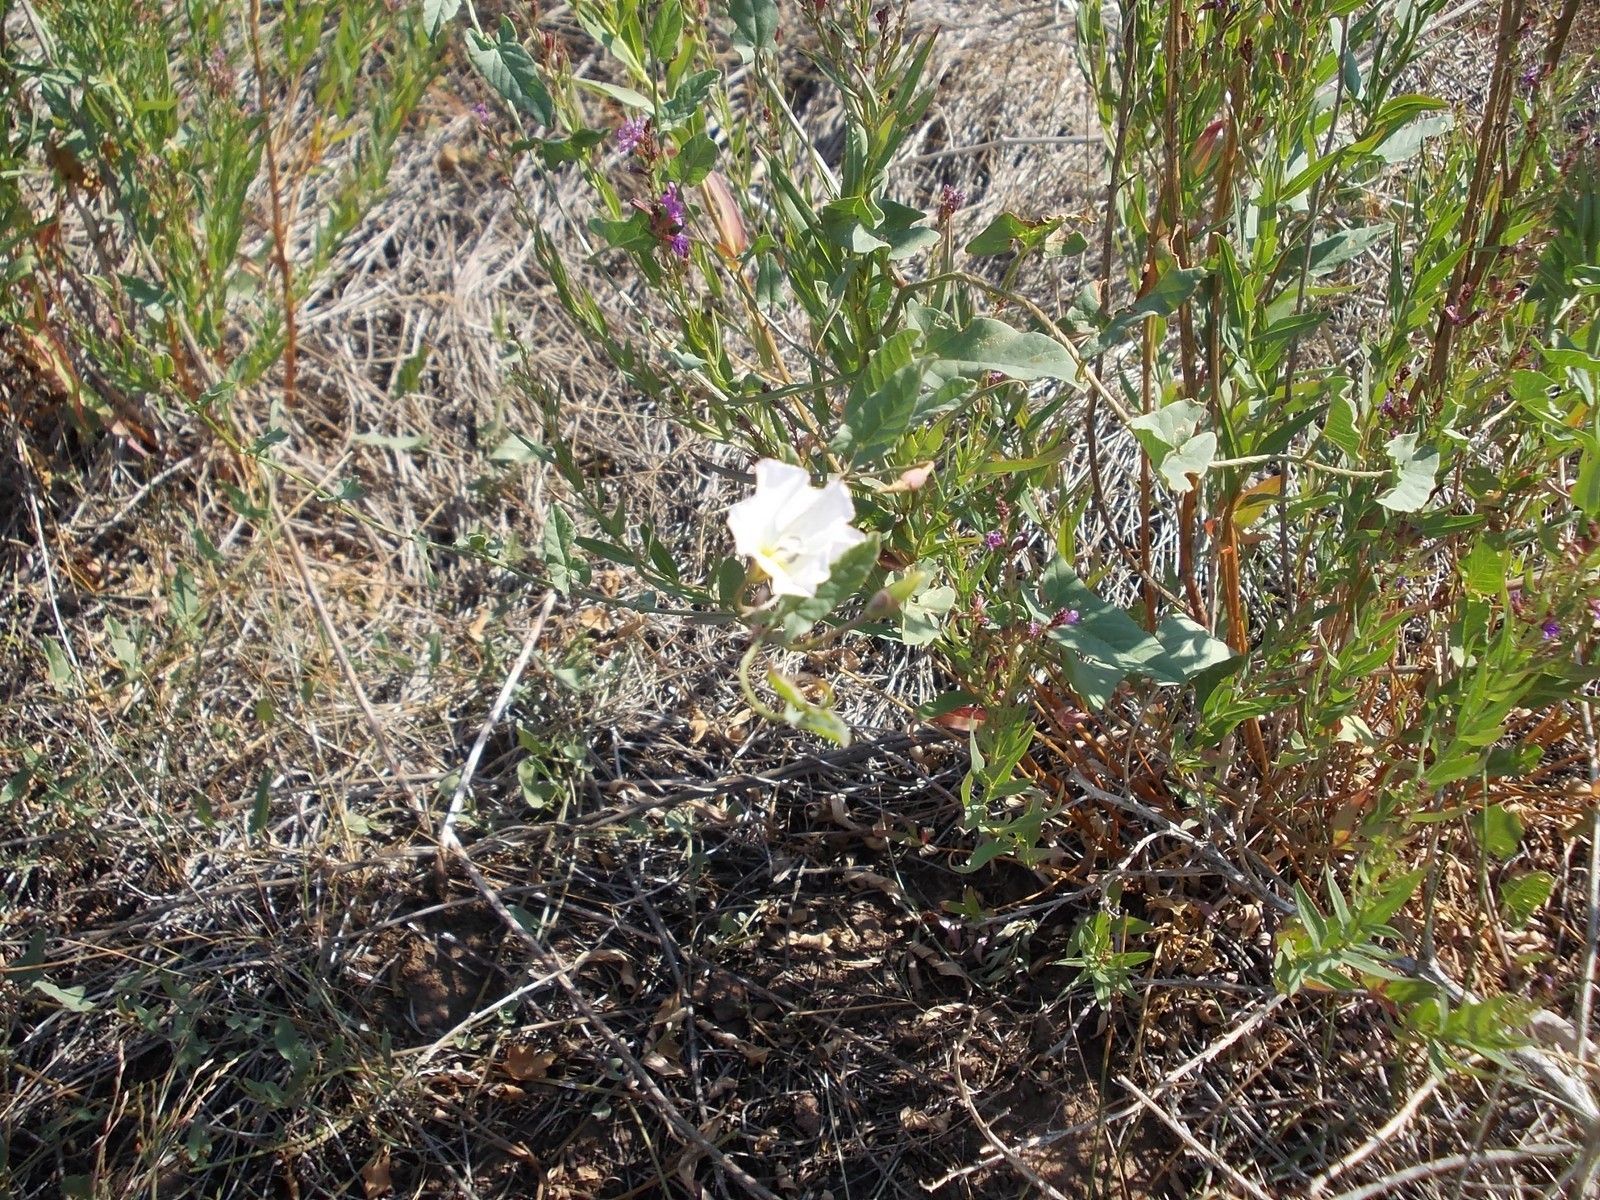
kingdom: Plantae
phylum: Tracheophyta
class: Magnoliopsida
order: Solanales
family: Convolvulaceae
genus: Convolvulus
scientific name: Convolvulus arvensis
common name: Field bindweed
